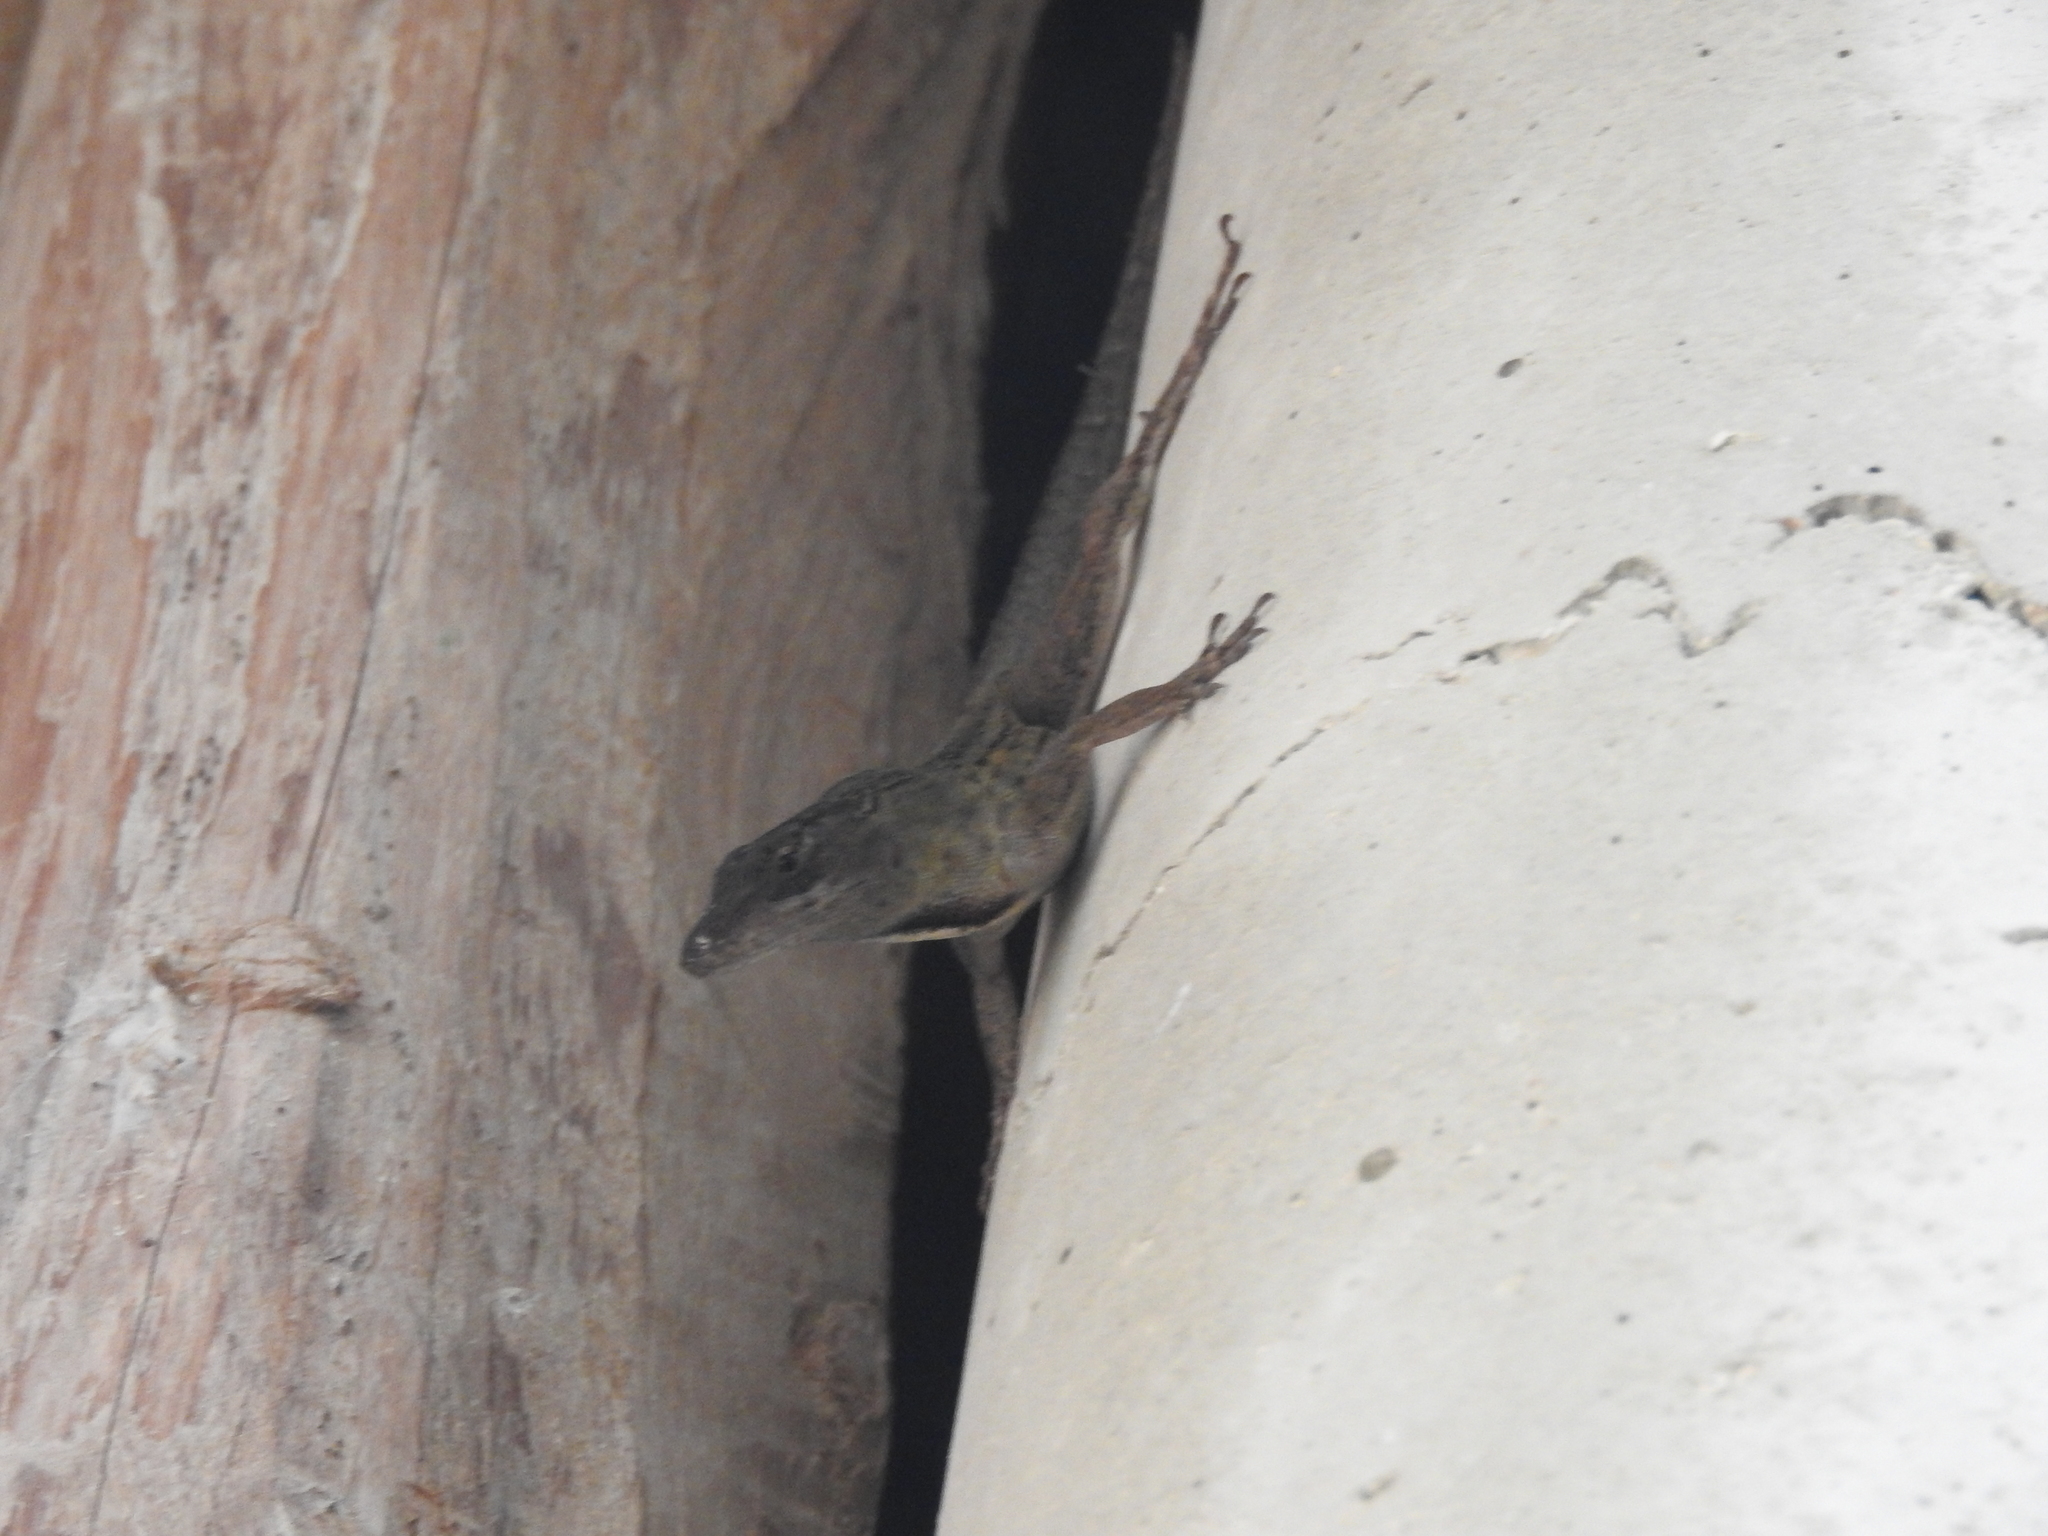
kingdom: Animalia
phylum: Chordata
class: Squamata
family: Dactyloidae
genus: Anolis
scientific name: Anolis sagrei
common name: Brown anole
